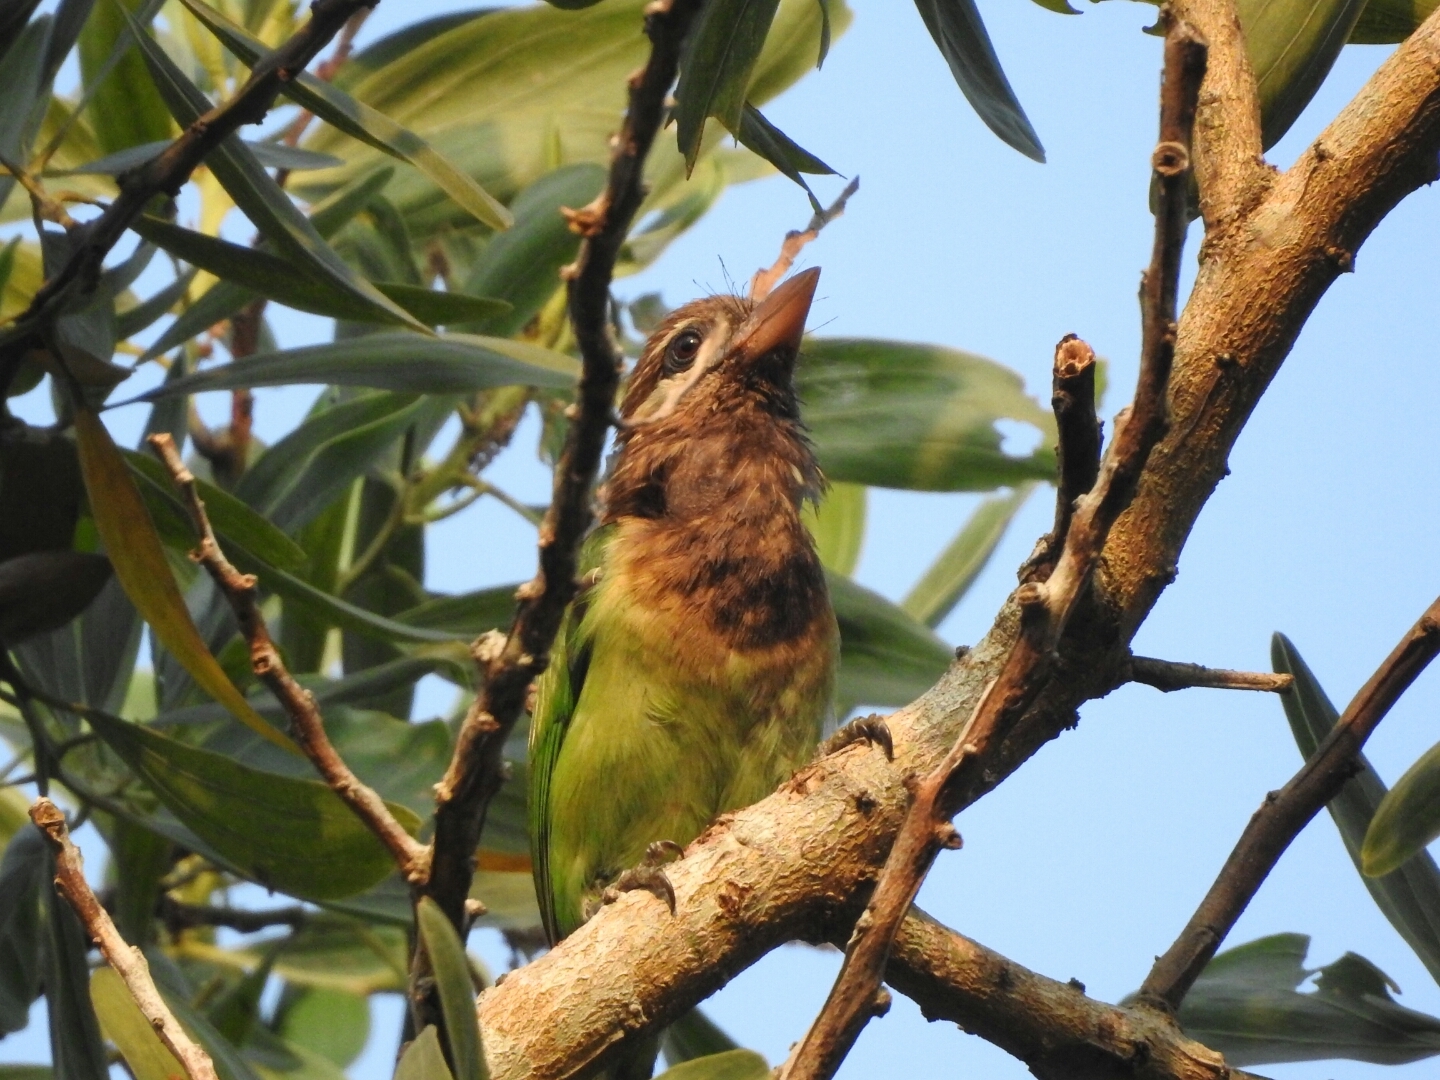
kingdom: Animalia
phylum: Chordata
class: Aves
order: Piciformes
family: Megalaimidae
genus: Psilopogon
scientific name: Psilopogon viridis
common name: White-cheeked barbet
